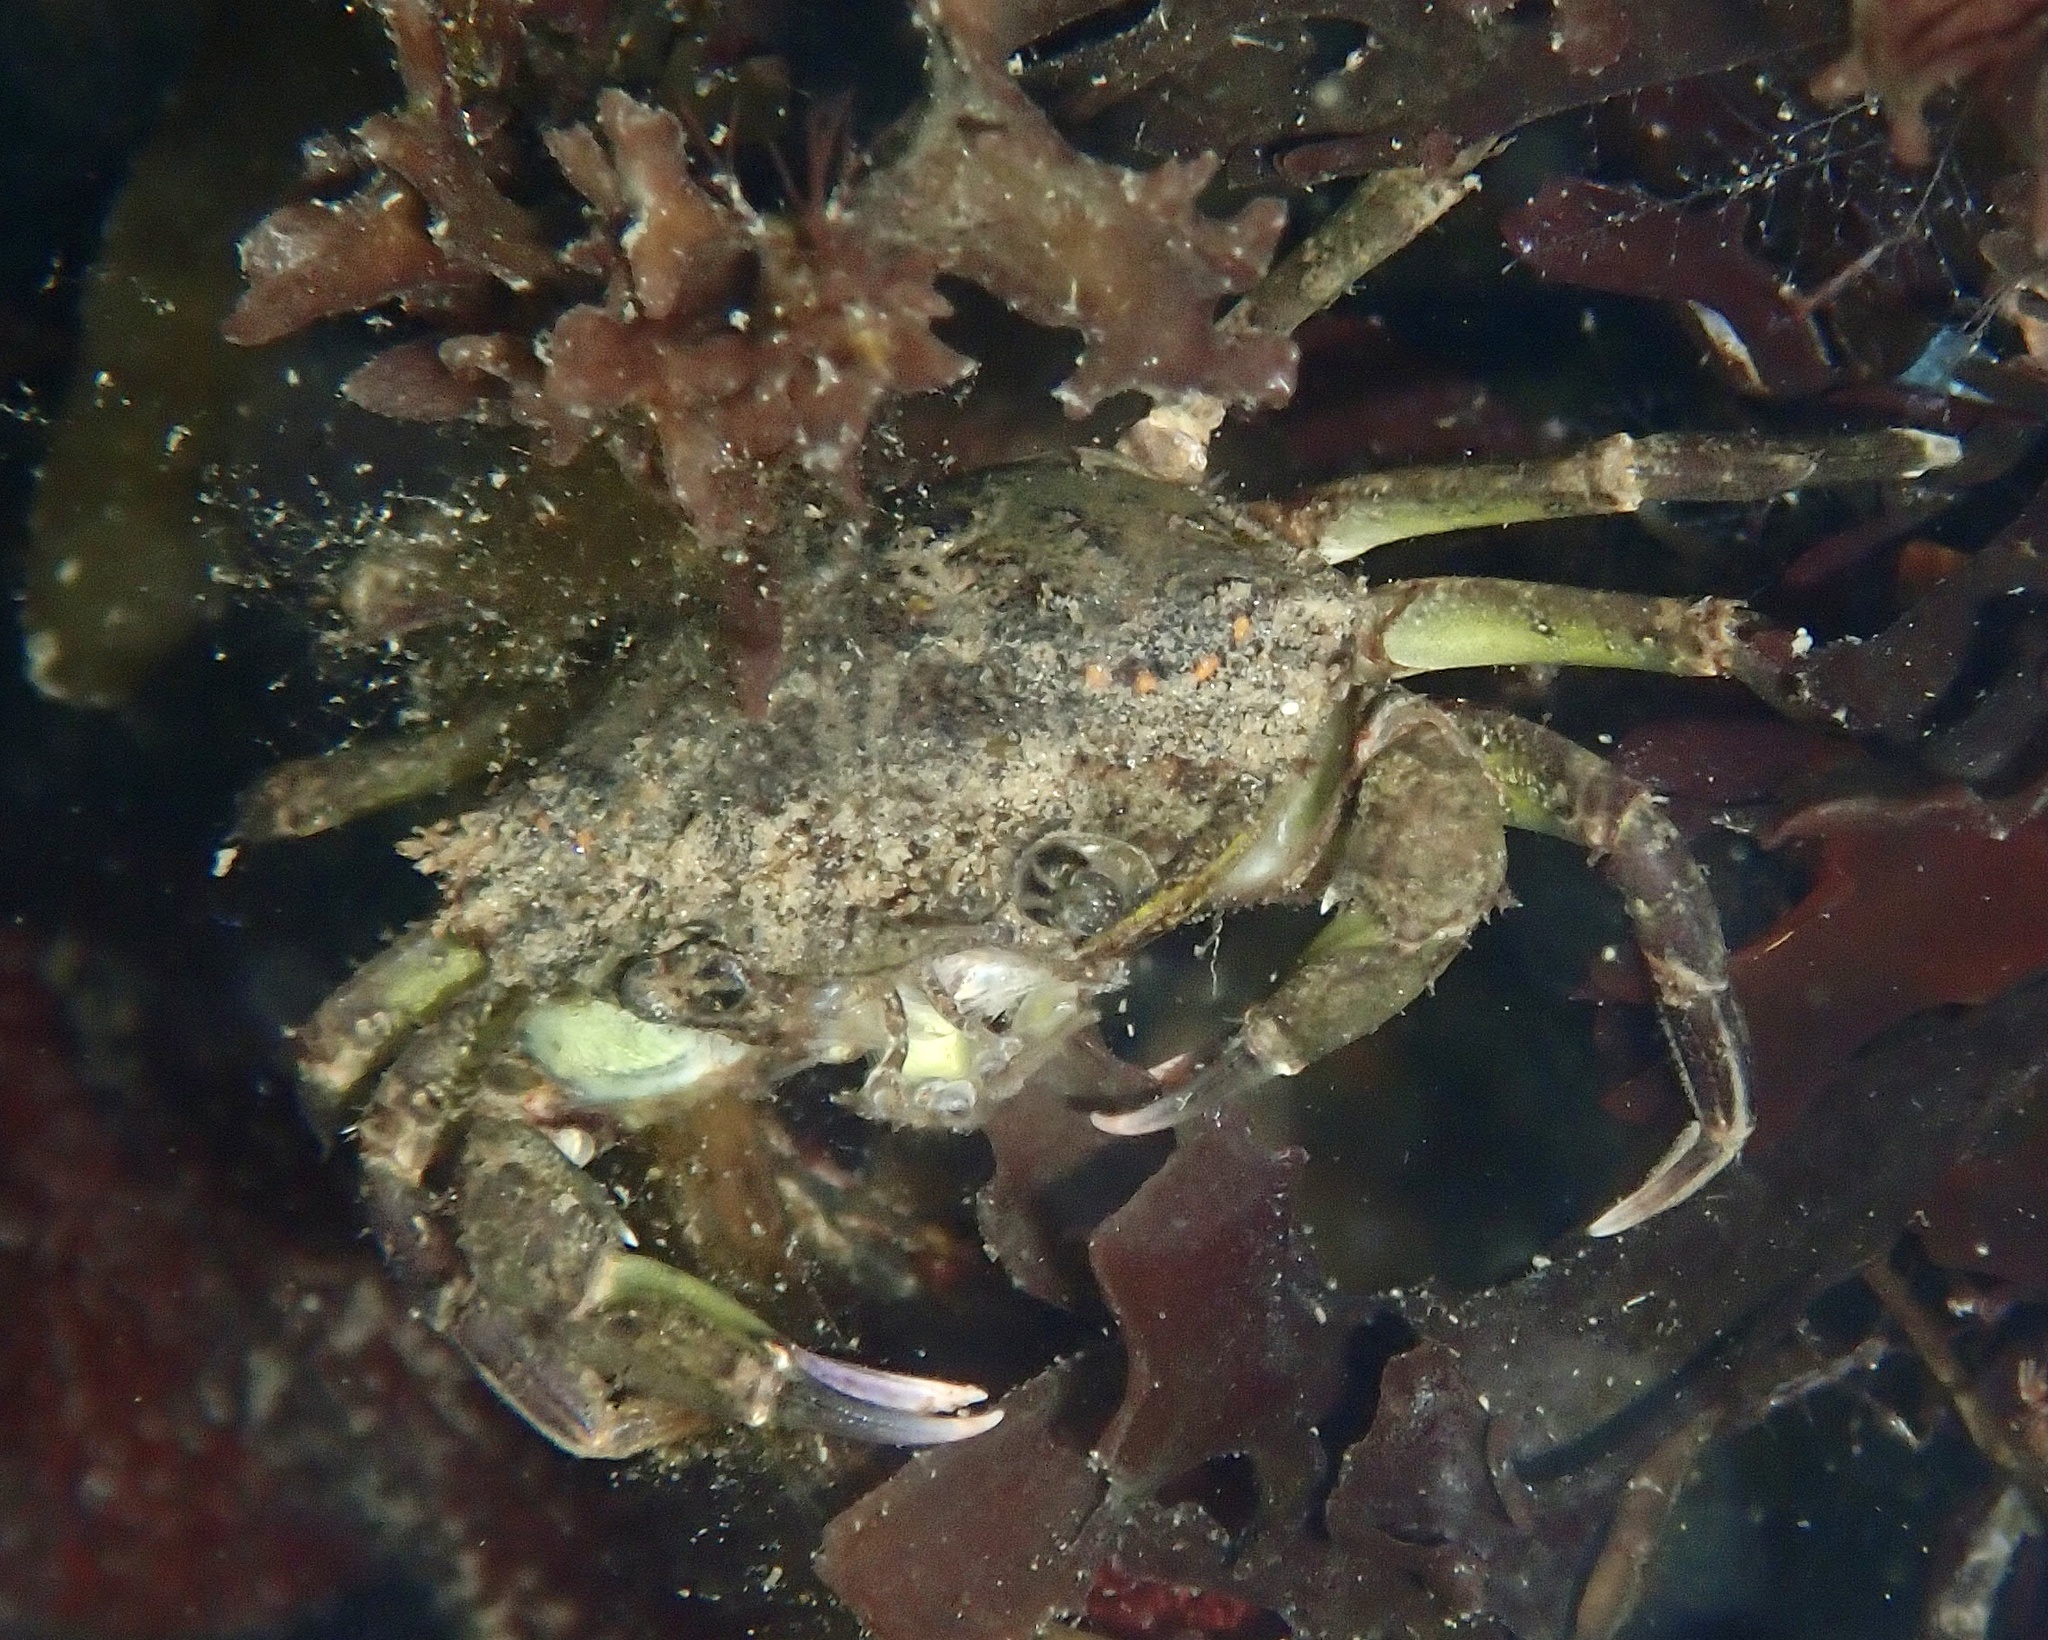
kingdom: Animalia
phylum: Arthropoda
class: Malacostraca
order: Decapoda
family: Carcinidae
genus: Carcinus
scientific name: Carcinus maenas
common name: European green crab
